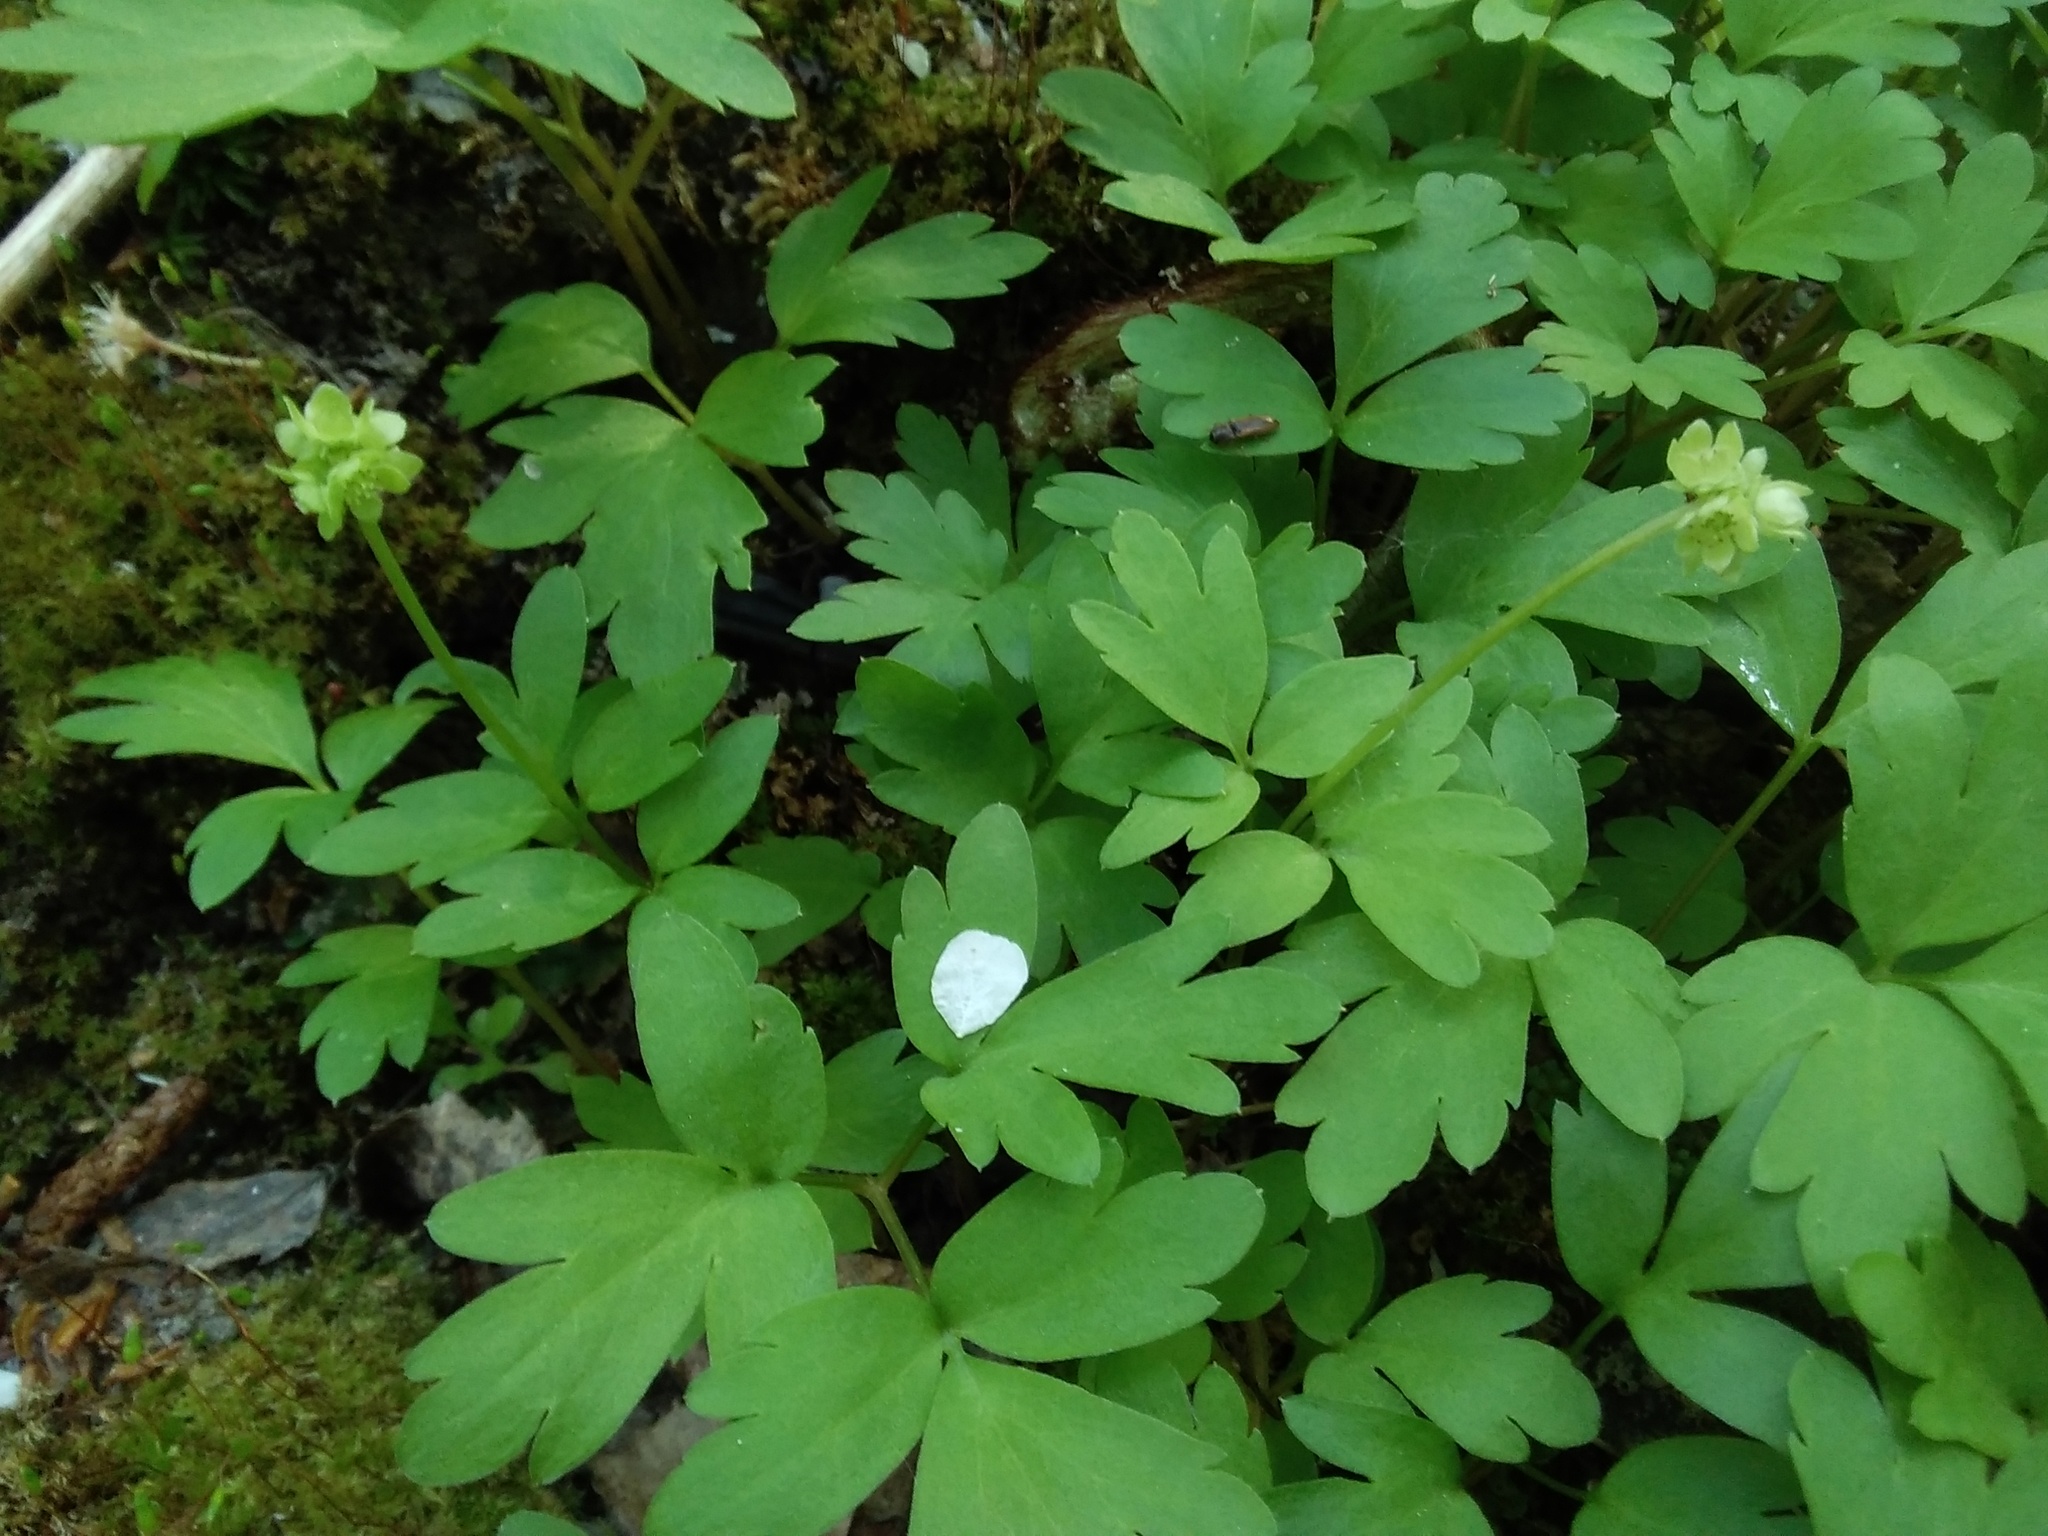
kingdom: Plantae
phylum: Tracheophyta
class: Magnoliopsida
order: Dipsacales
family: Viburnaceae
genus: Adoxa
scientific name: Adoxa moschatellina
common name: Moschatel
